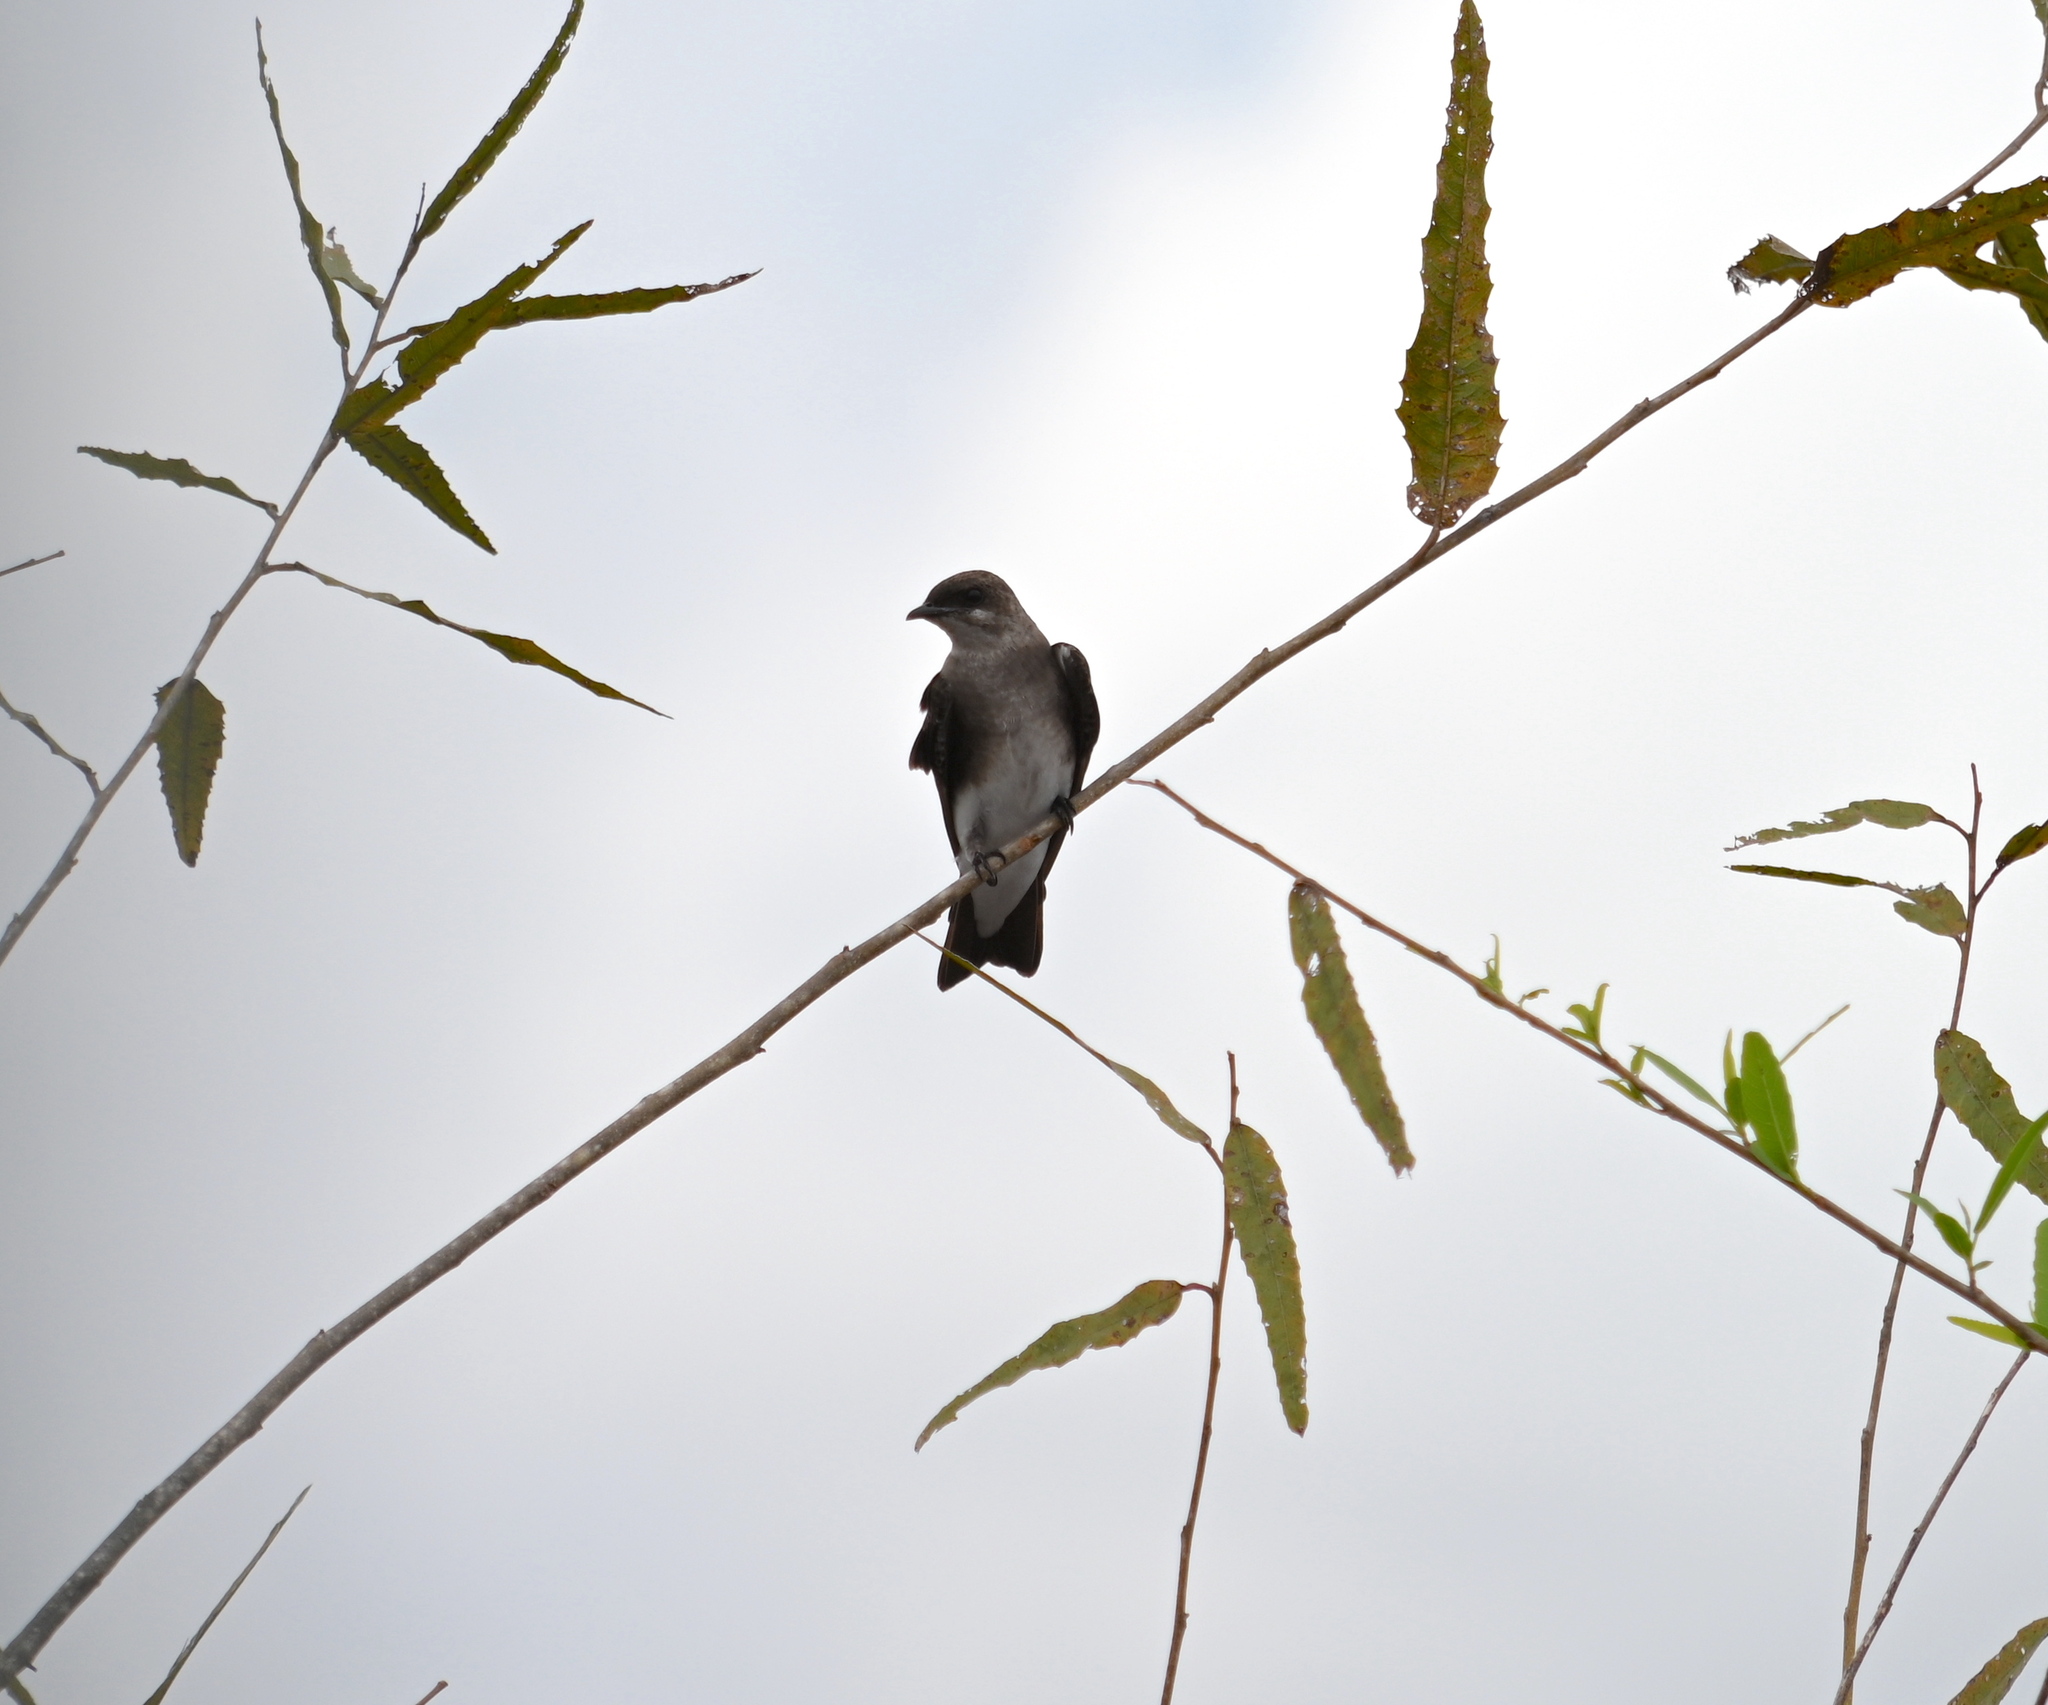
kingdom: Animalia
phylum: Chordata
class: Aves
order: Passeriformes
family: Hirundinidae
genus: Progne
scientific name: Progne tapera
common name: Brown-chested martin
